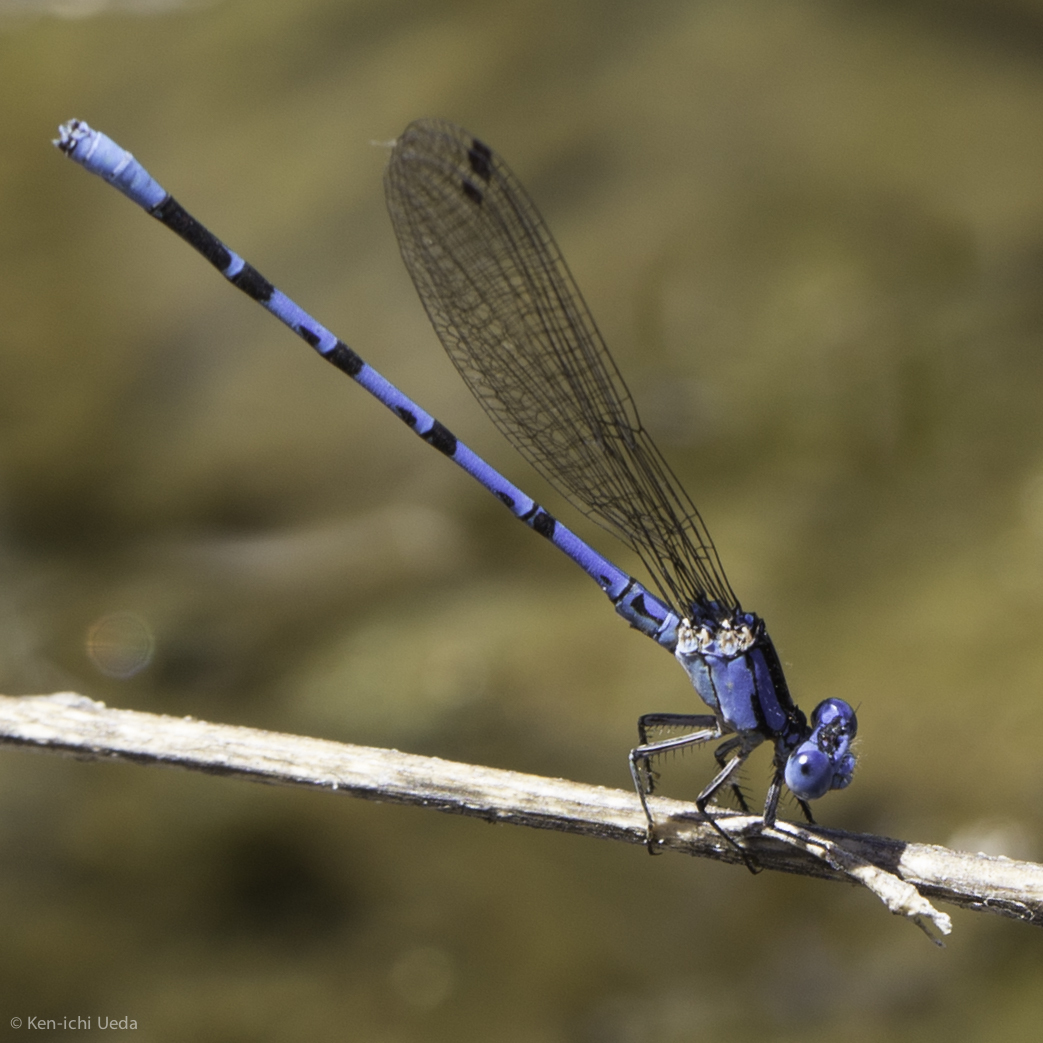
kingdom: Animalia
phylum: Arthropoda
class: Insecta
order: Odonata
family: Coenagrionidae
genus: Argia
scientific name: Argia vivida
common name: Vivid dancer
